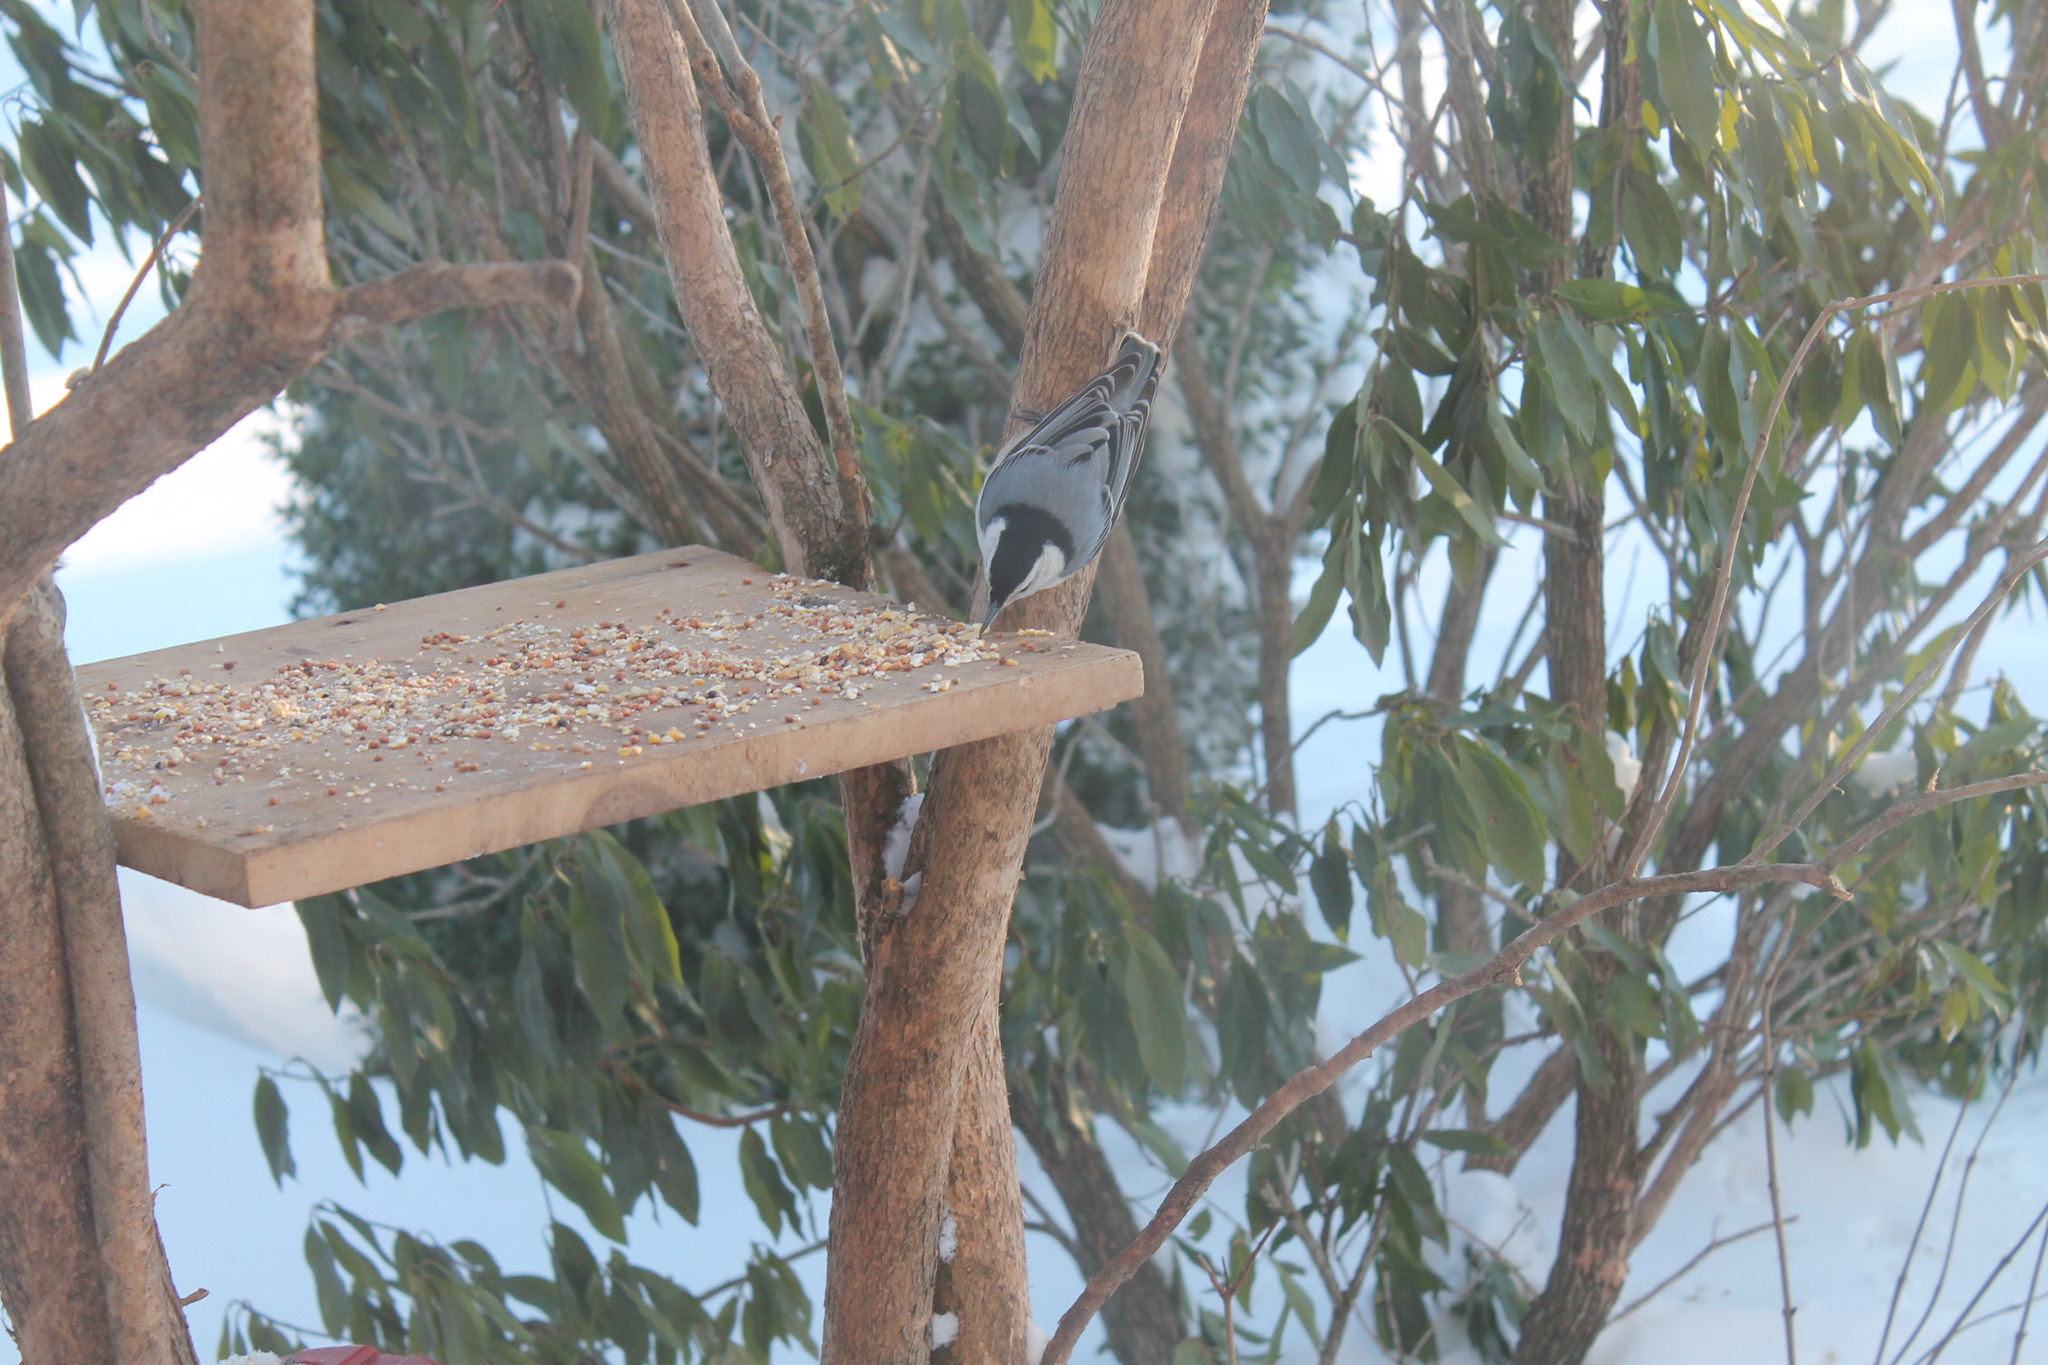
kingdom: Animalia
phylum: Chordata
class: Aves
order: Passeriformes
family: Sittidae
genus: Sitta
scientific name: Sitta carolinensis
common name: White-breasted nuthatch
